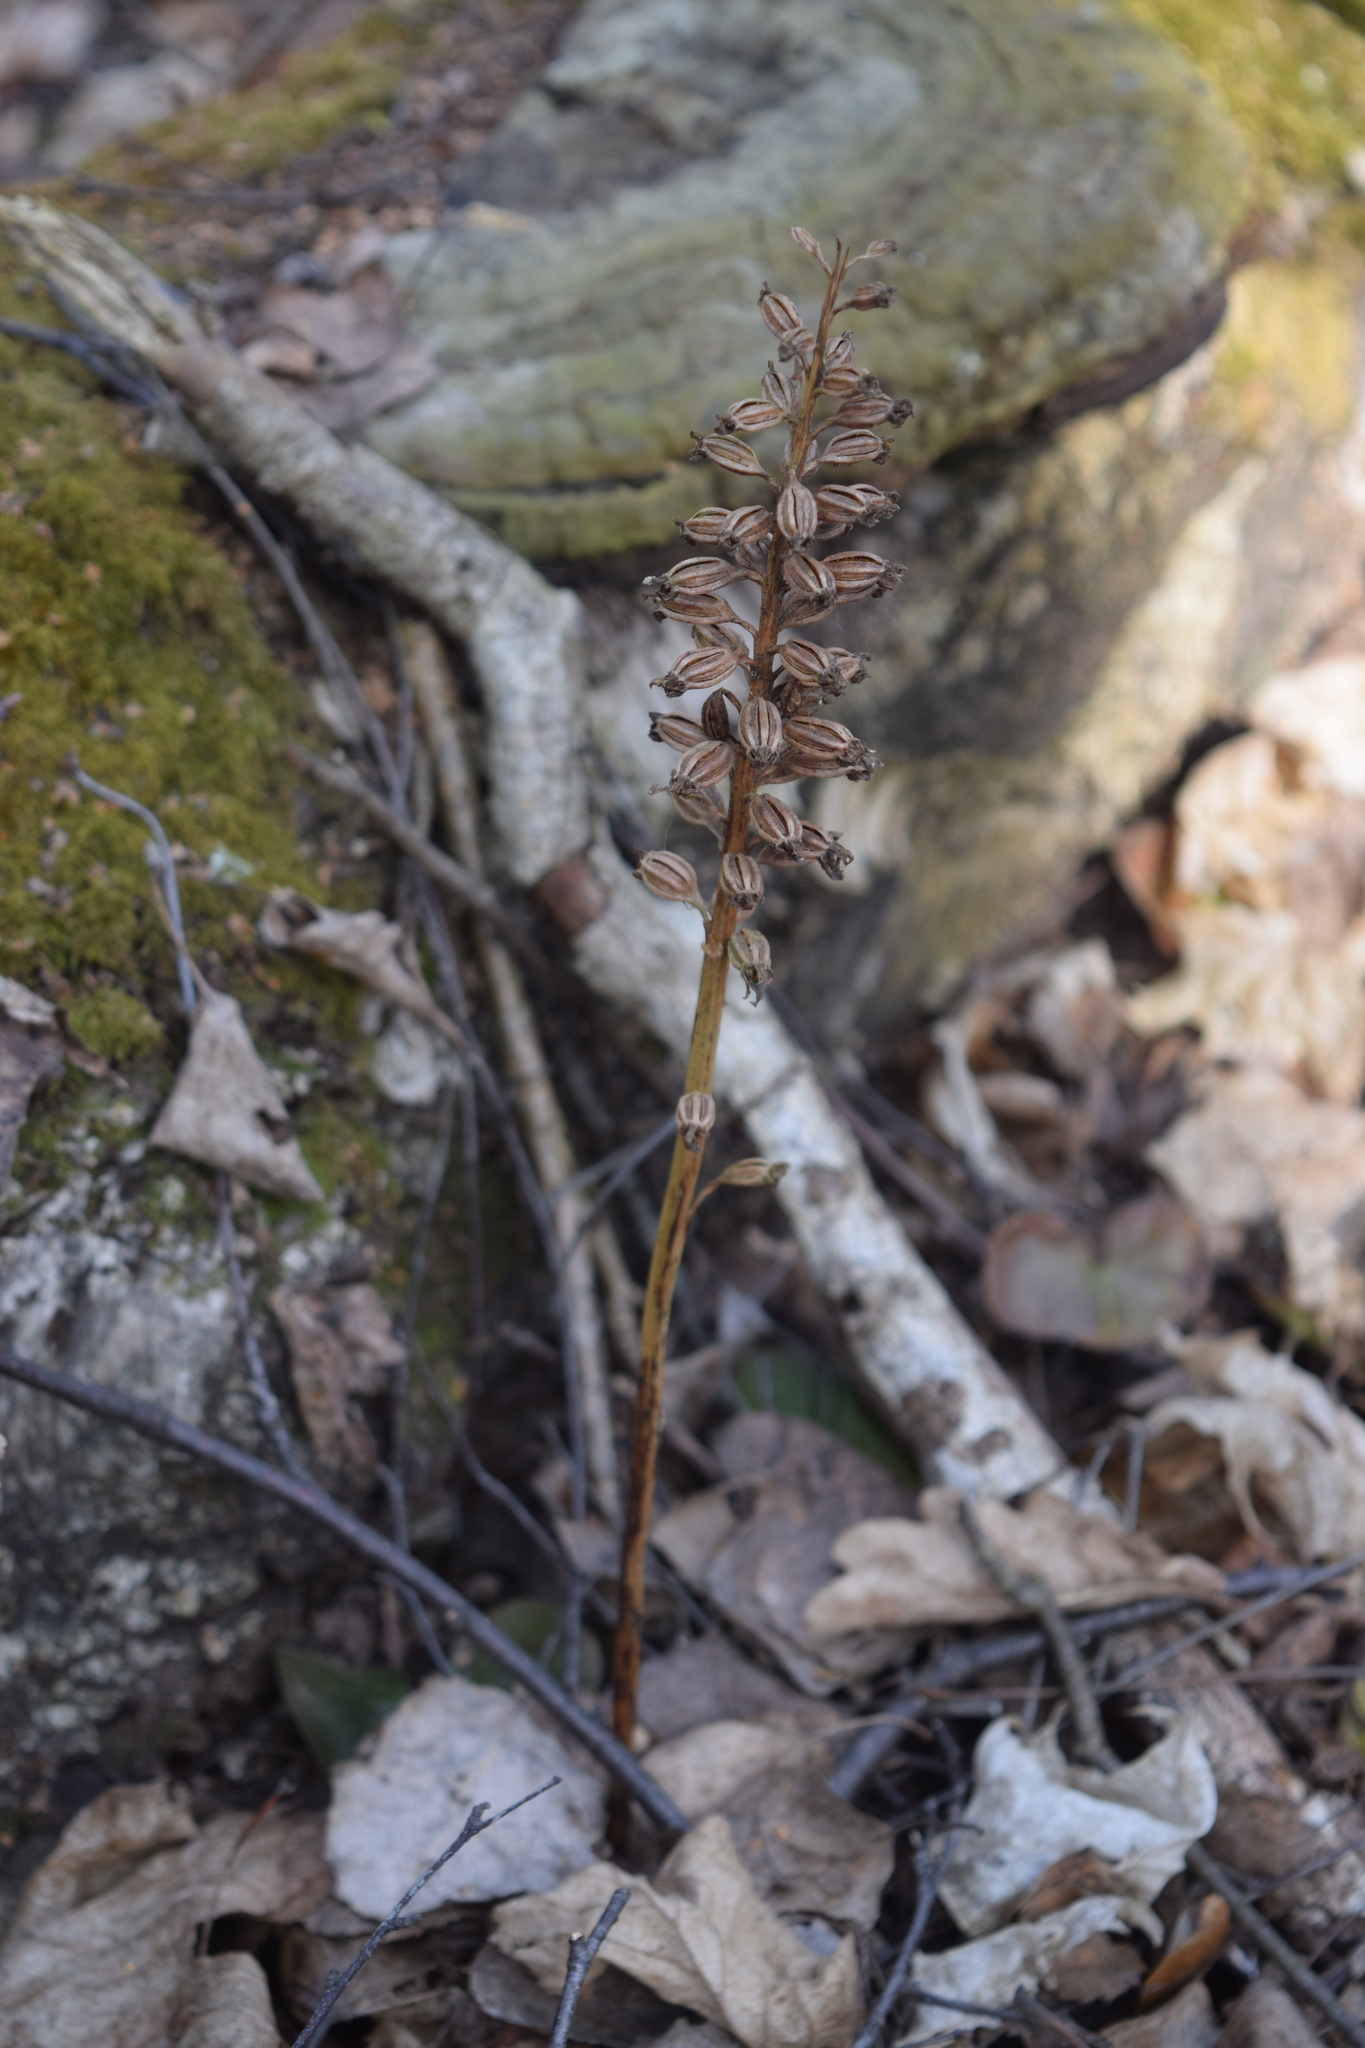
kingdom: Plantae
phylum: Tracheophyta
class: Liliopsida
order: Asparagales
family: Orchidaceae
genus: Neottia
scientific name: Neottia nidus-avis
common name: Bird's-nest orchid
